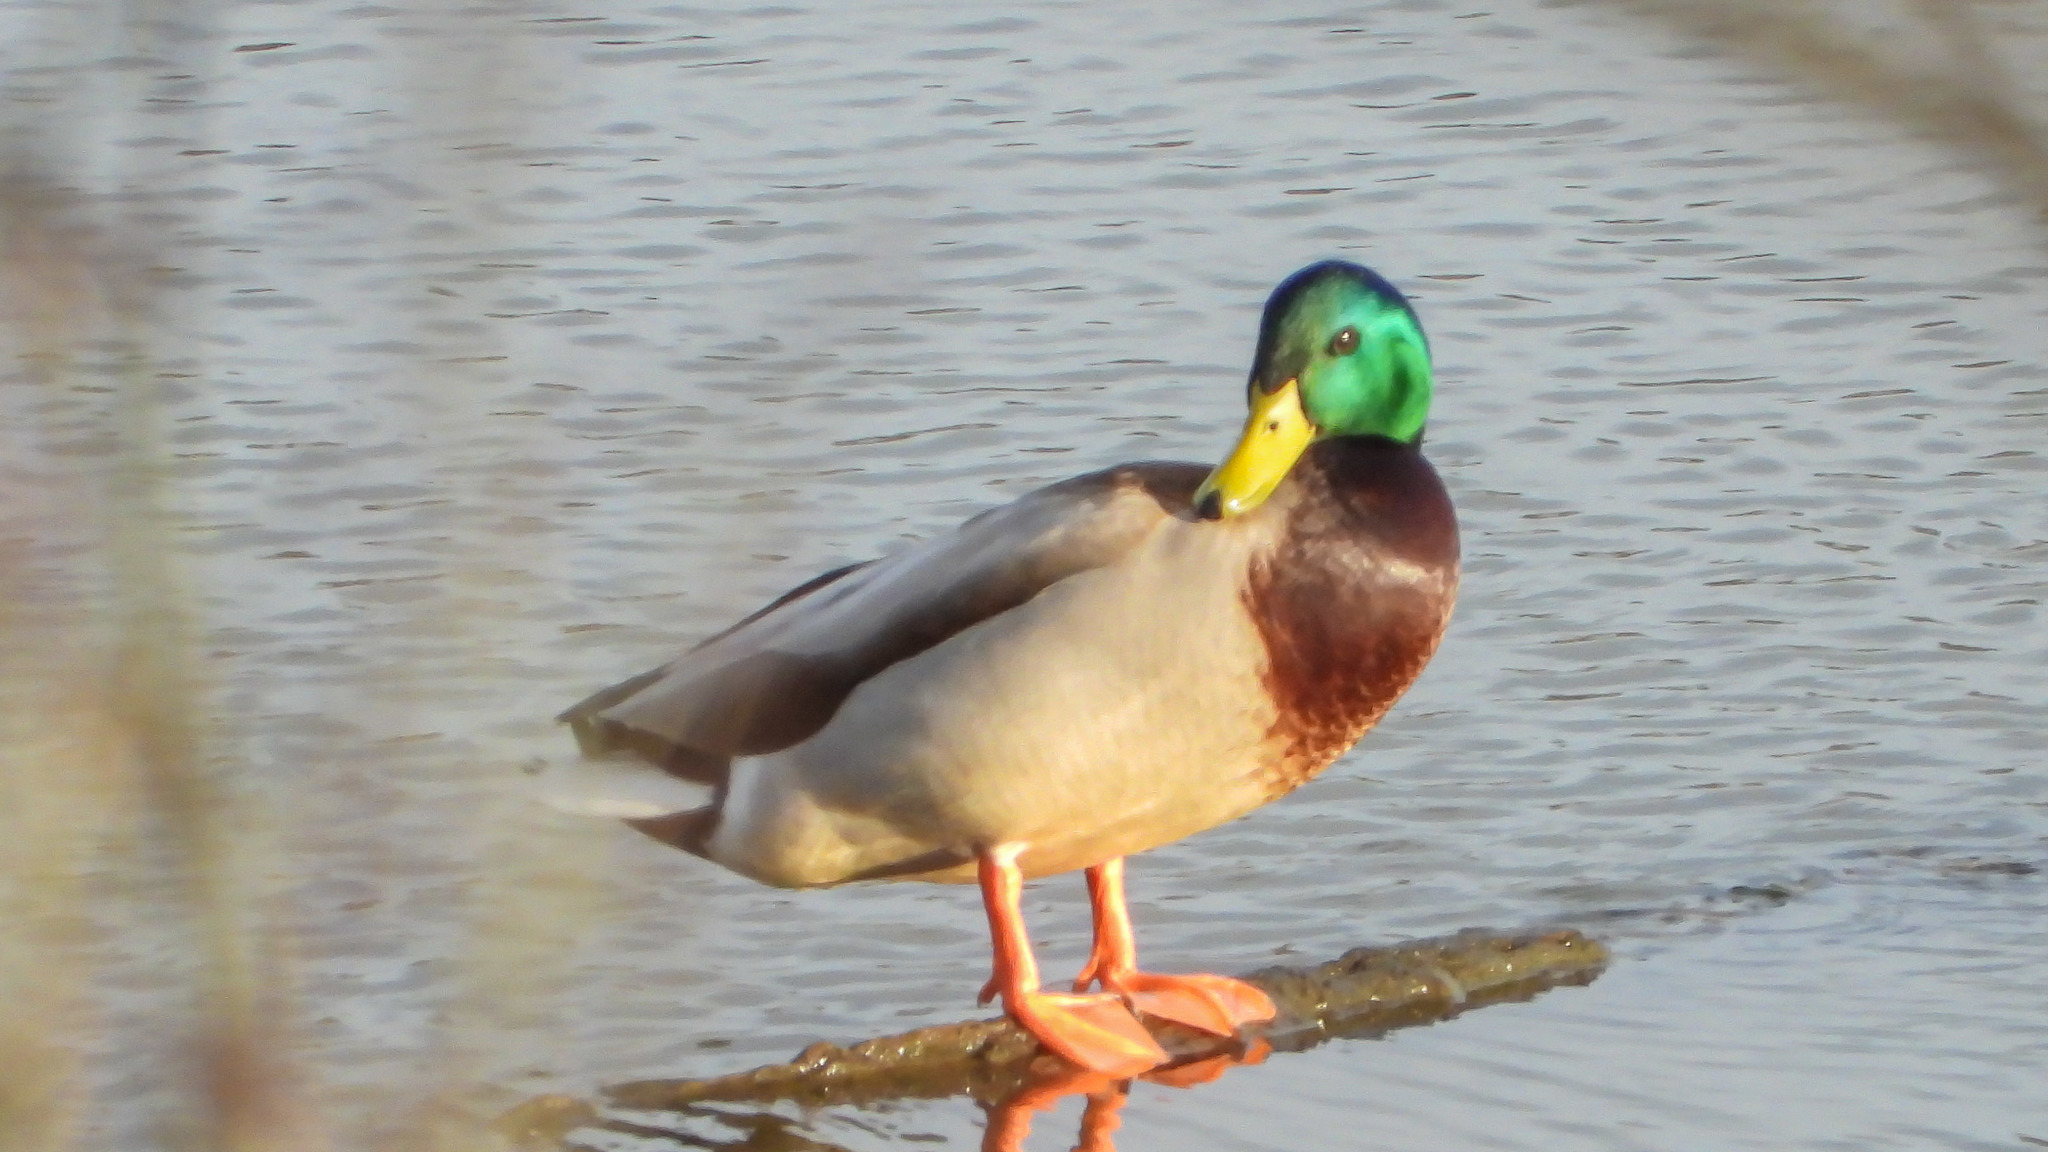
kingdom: Animalia
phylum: Chordata
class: Aves
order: Anseriformes
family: Anatidae
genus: Anas
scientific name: Anas platyrhynchos
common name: Mallard
